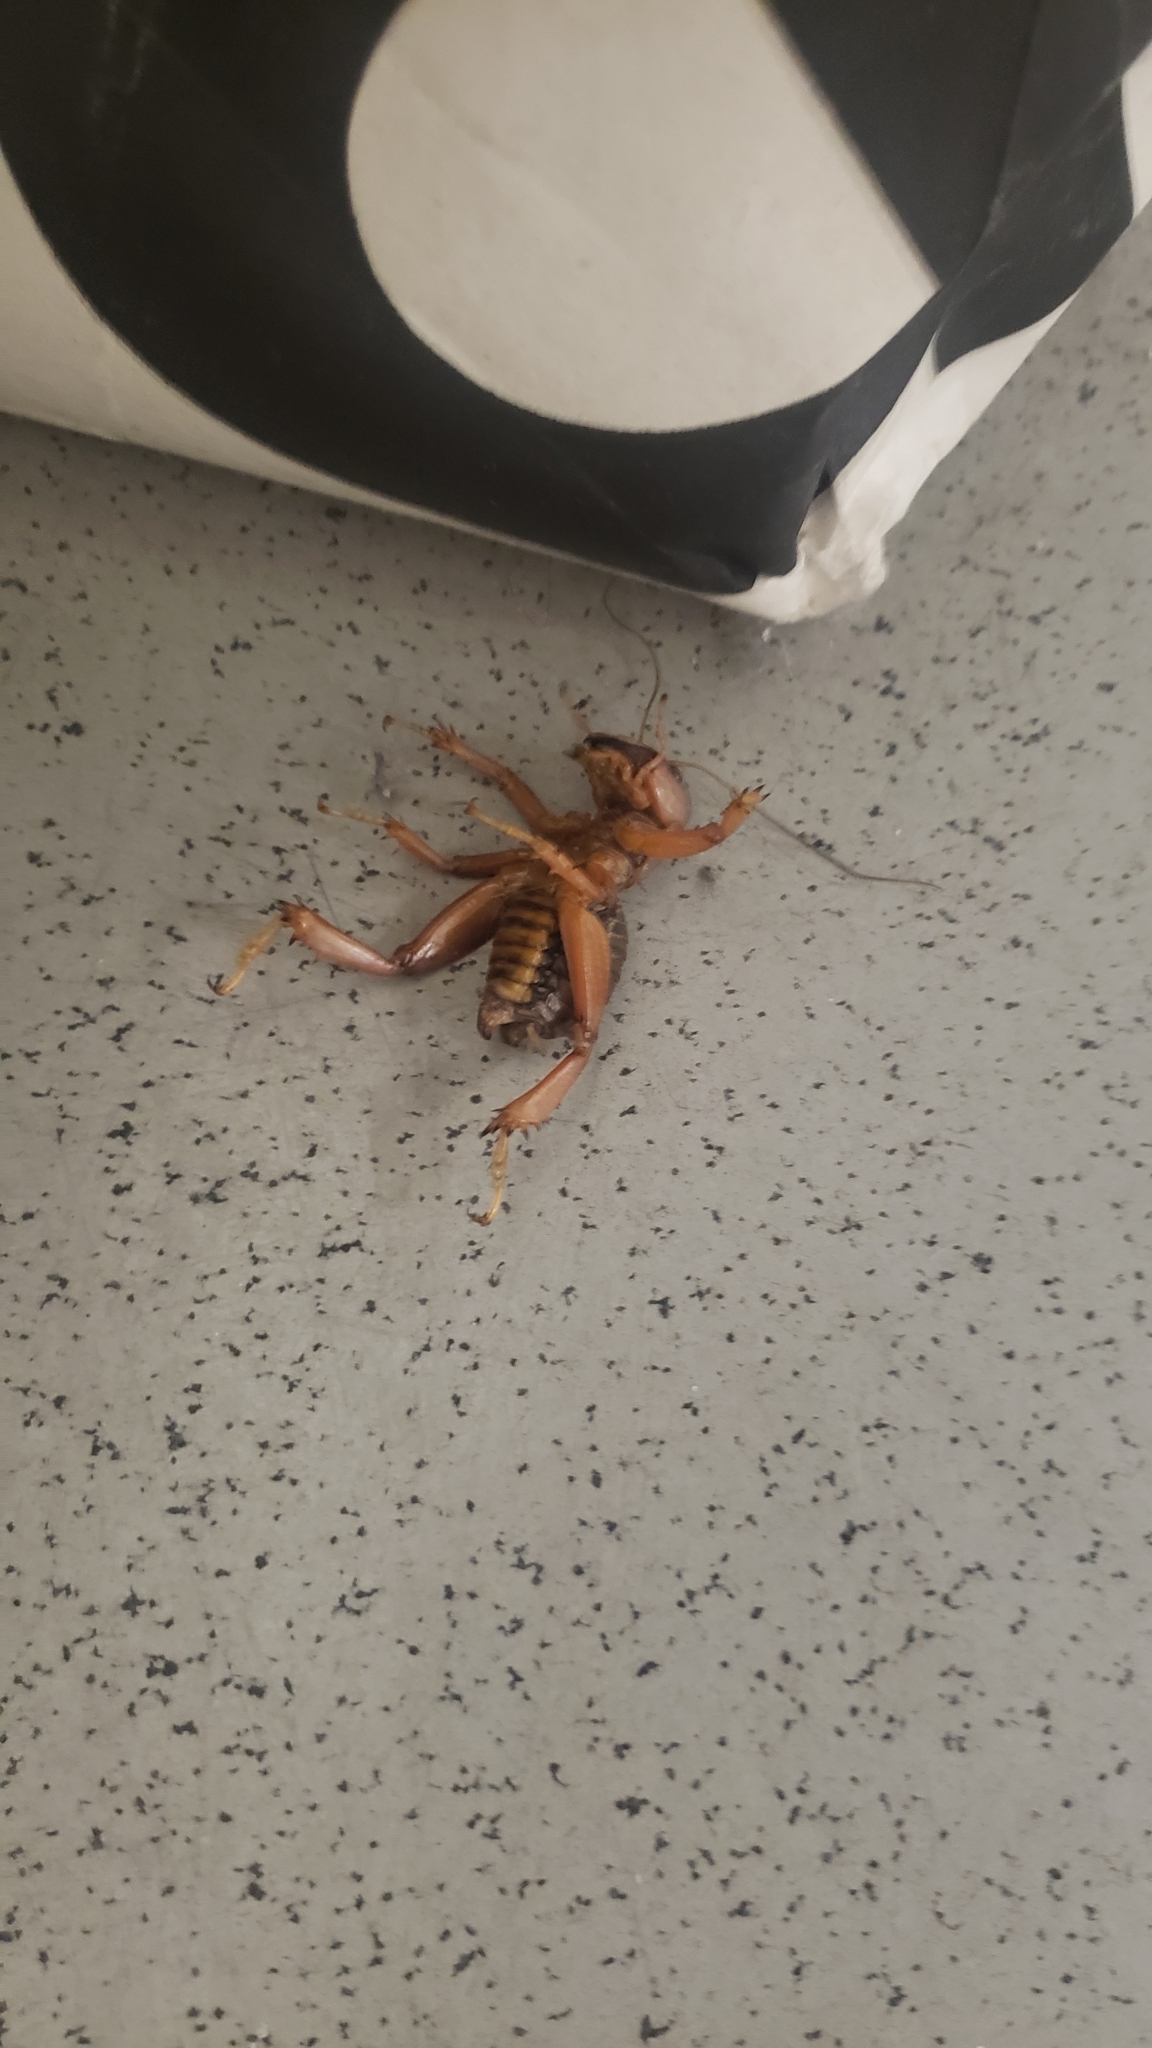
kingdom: Animalia
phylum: Arthropoda
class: Insecta
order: Orthoptera
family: Stenopelmatidae
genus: Ammopelmatus
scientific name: Ammopelmatus
